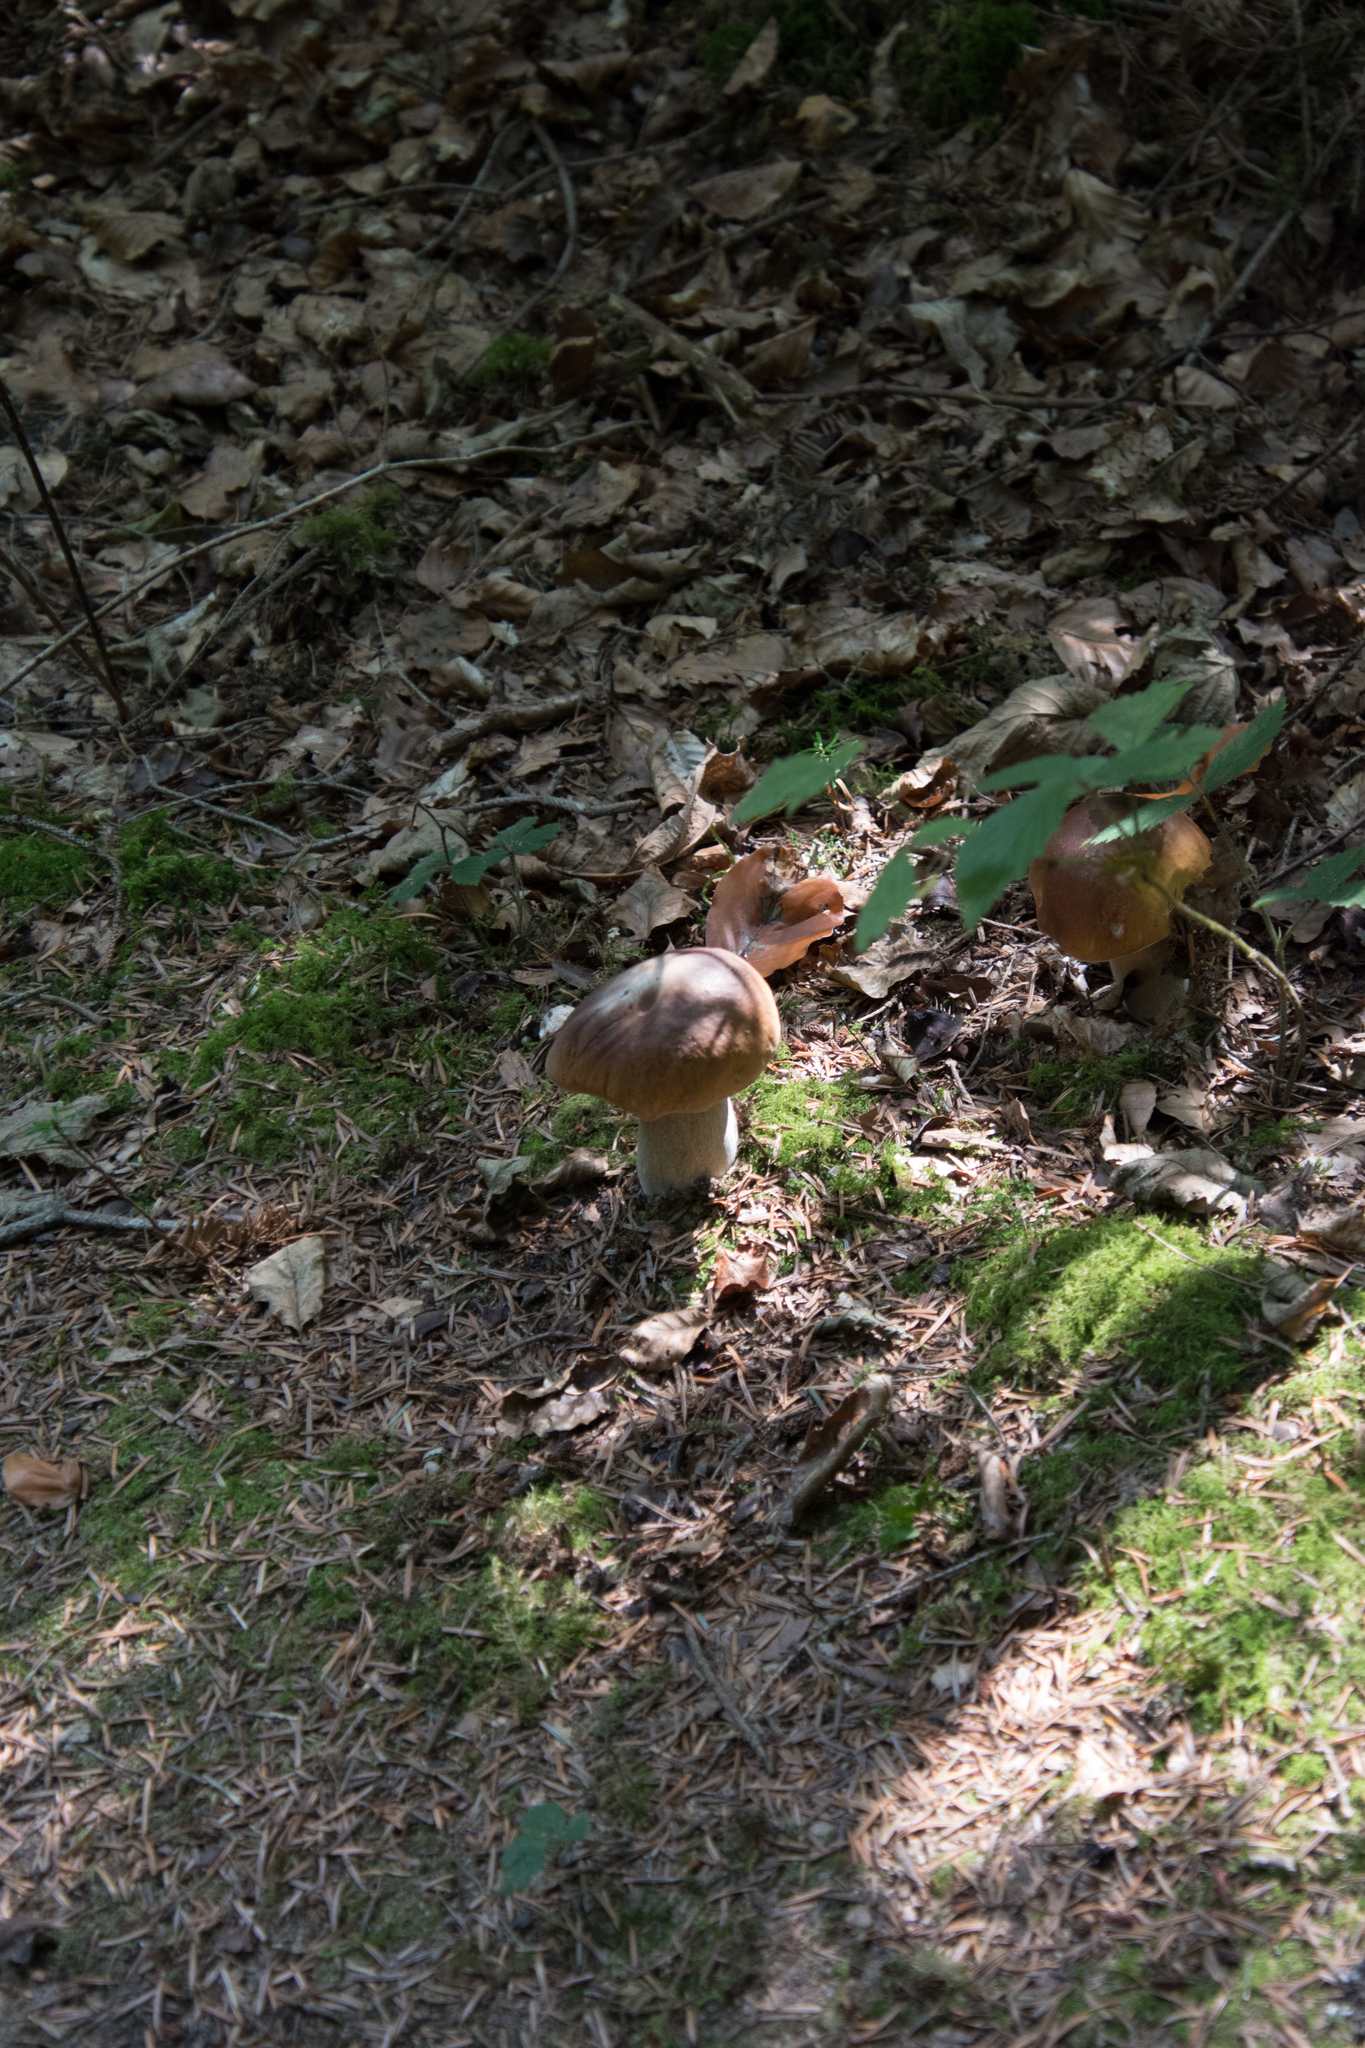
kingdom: Fungi
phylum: Basidiomycota
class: Agaricomycetes
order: Boletales
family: Boletaceae
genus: Boletus
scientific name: Boletus edulis
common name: Cep
